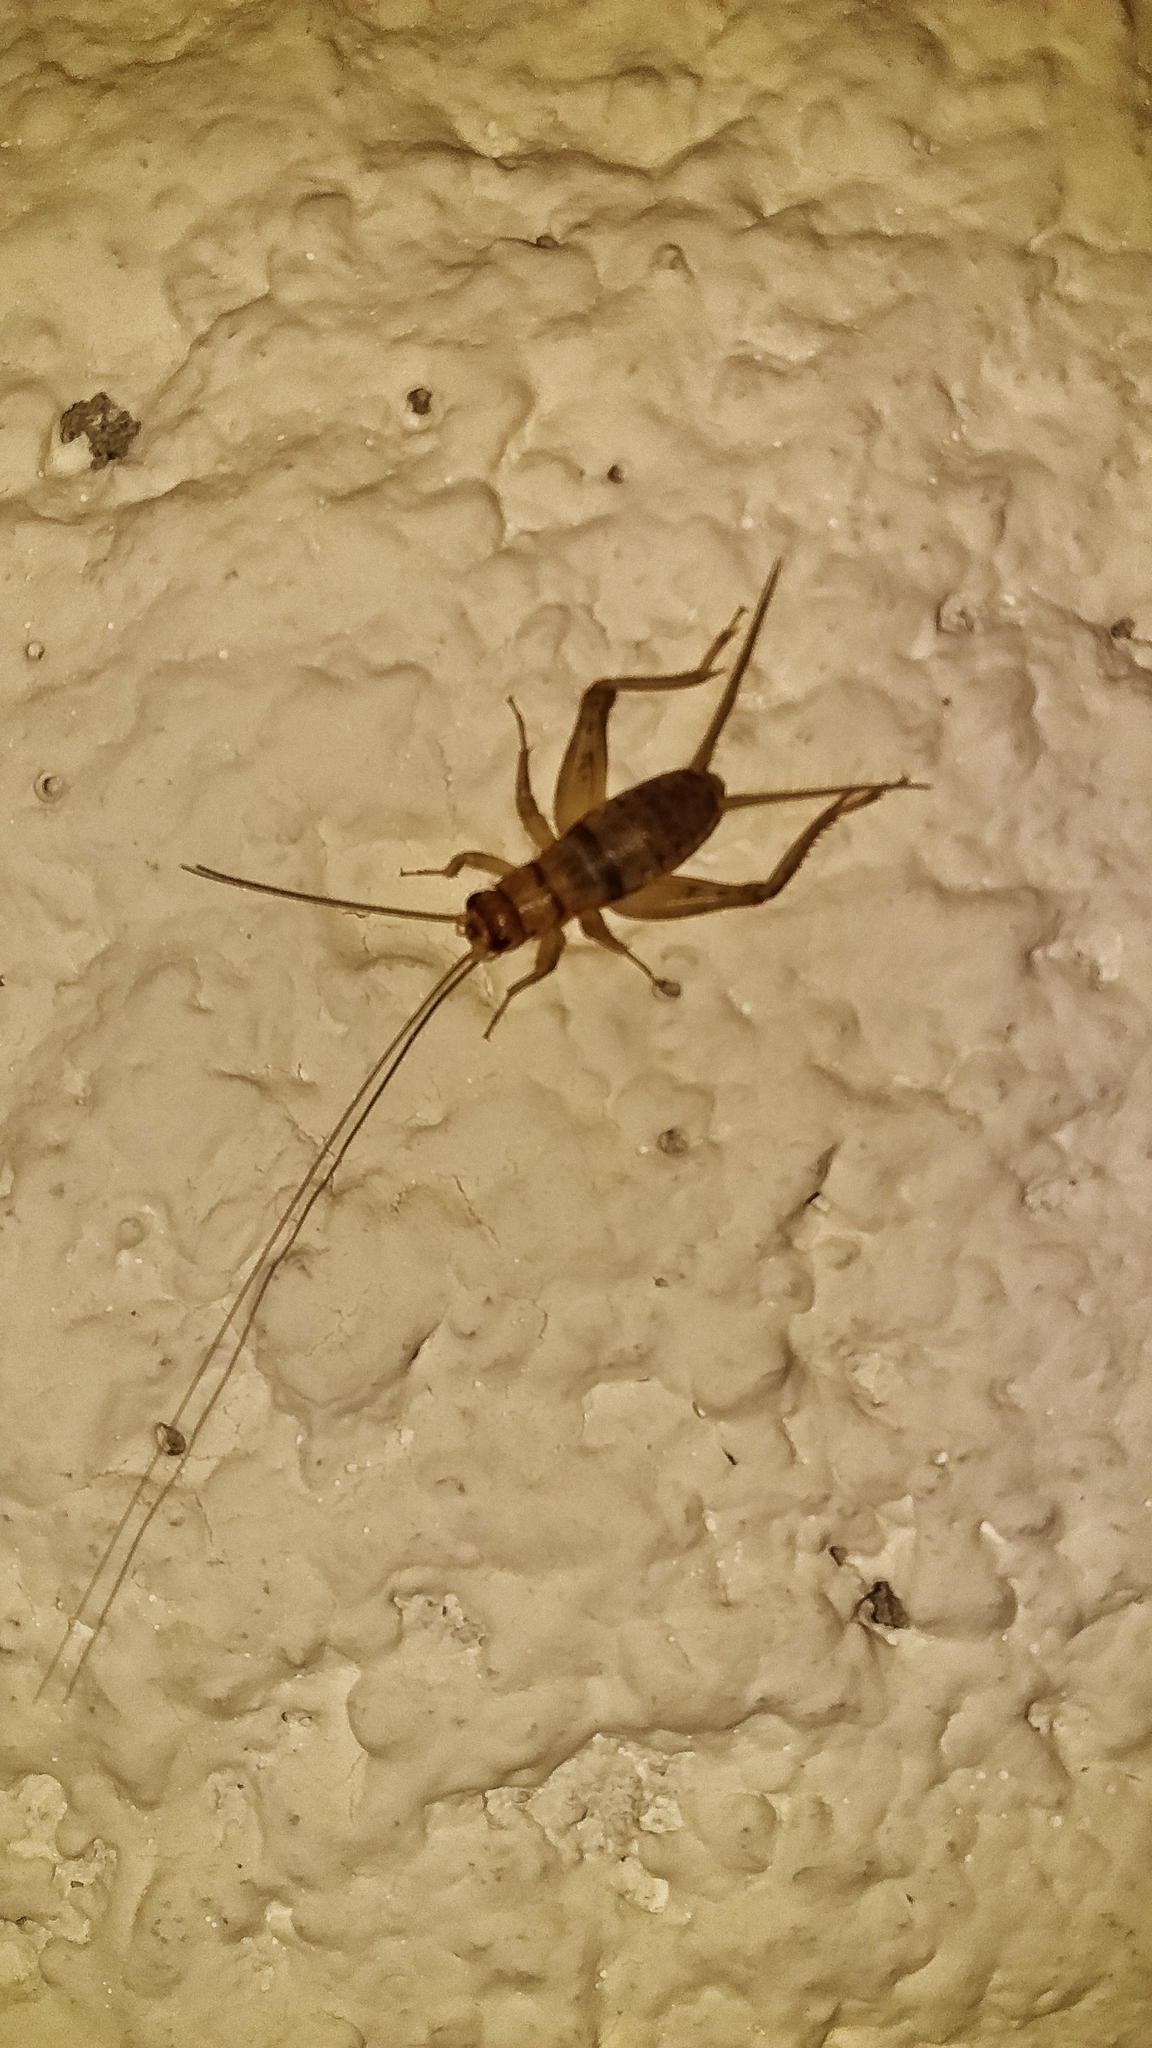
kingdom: Animalia
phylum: Arthropoda
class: Insecta
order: Orthoptera
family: Gryllidae
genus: Gryllodes
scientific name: Gryllodes sigillatus
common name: Tropical house cricket
